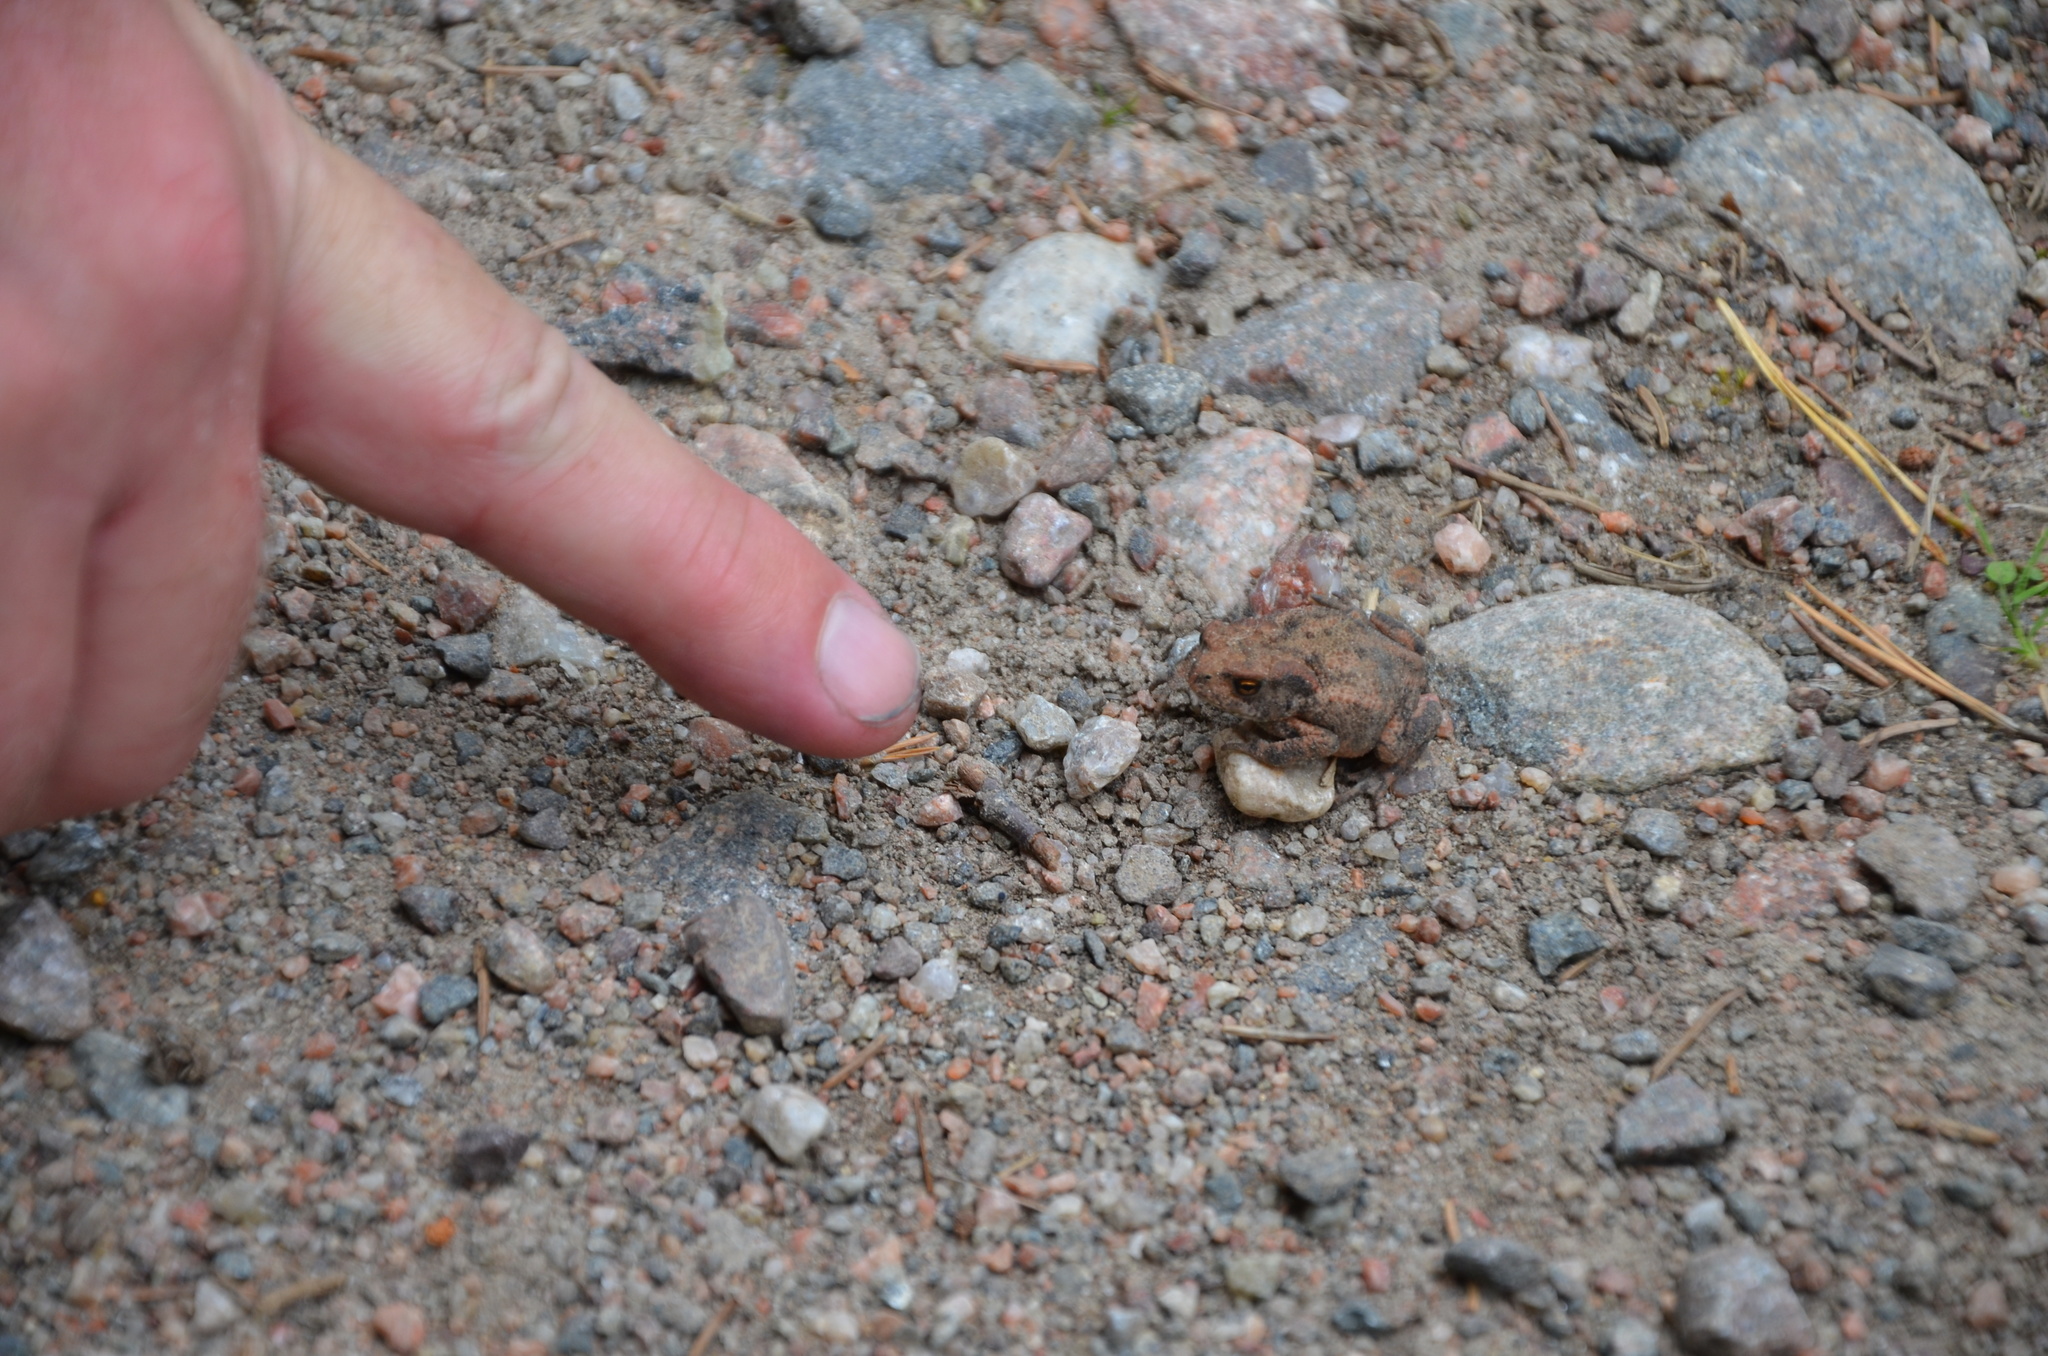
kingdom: Animalia
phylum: Chordata
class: Amphibia
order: Anura
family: Bufonidae
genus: Bufo
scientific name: Bufo bufo
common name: Common toad
